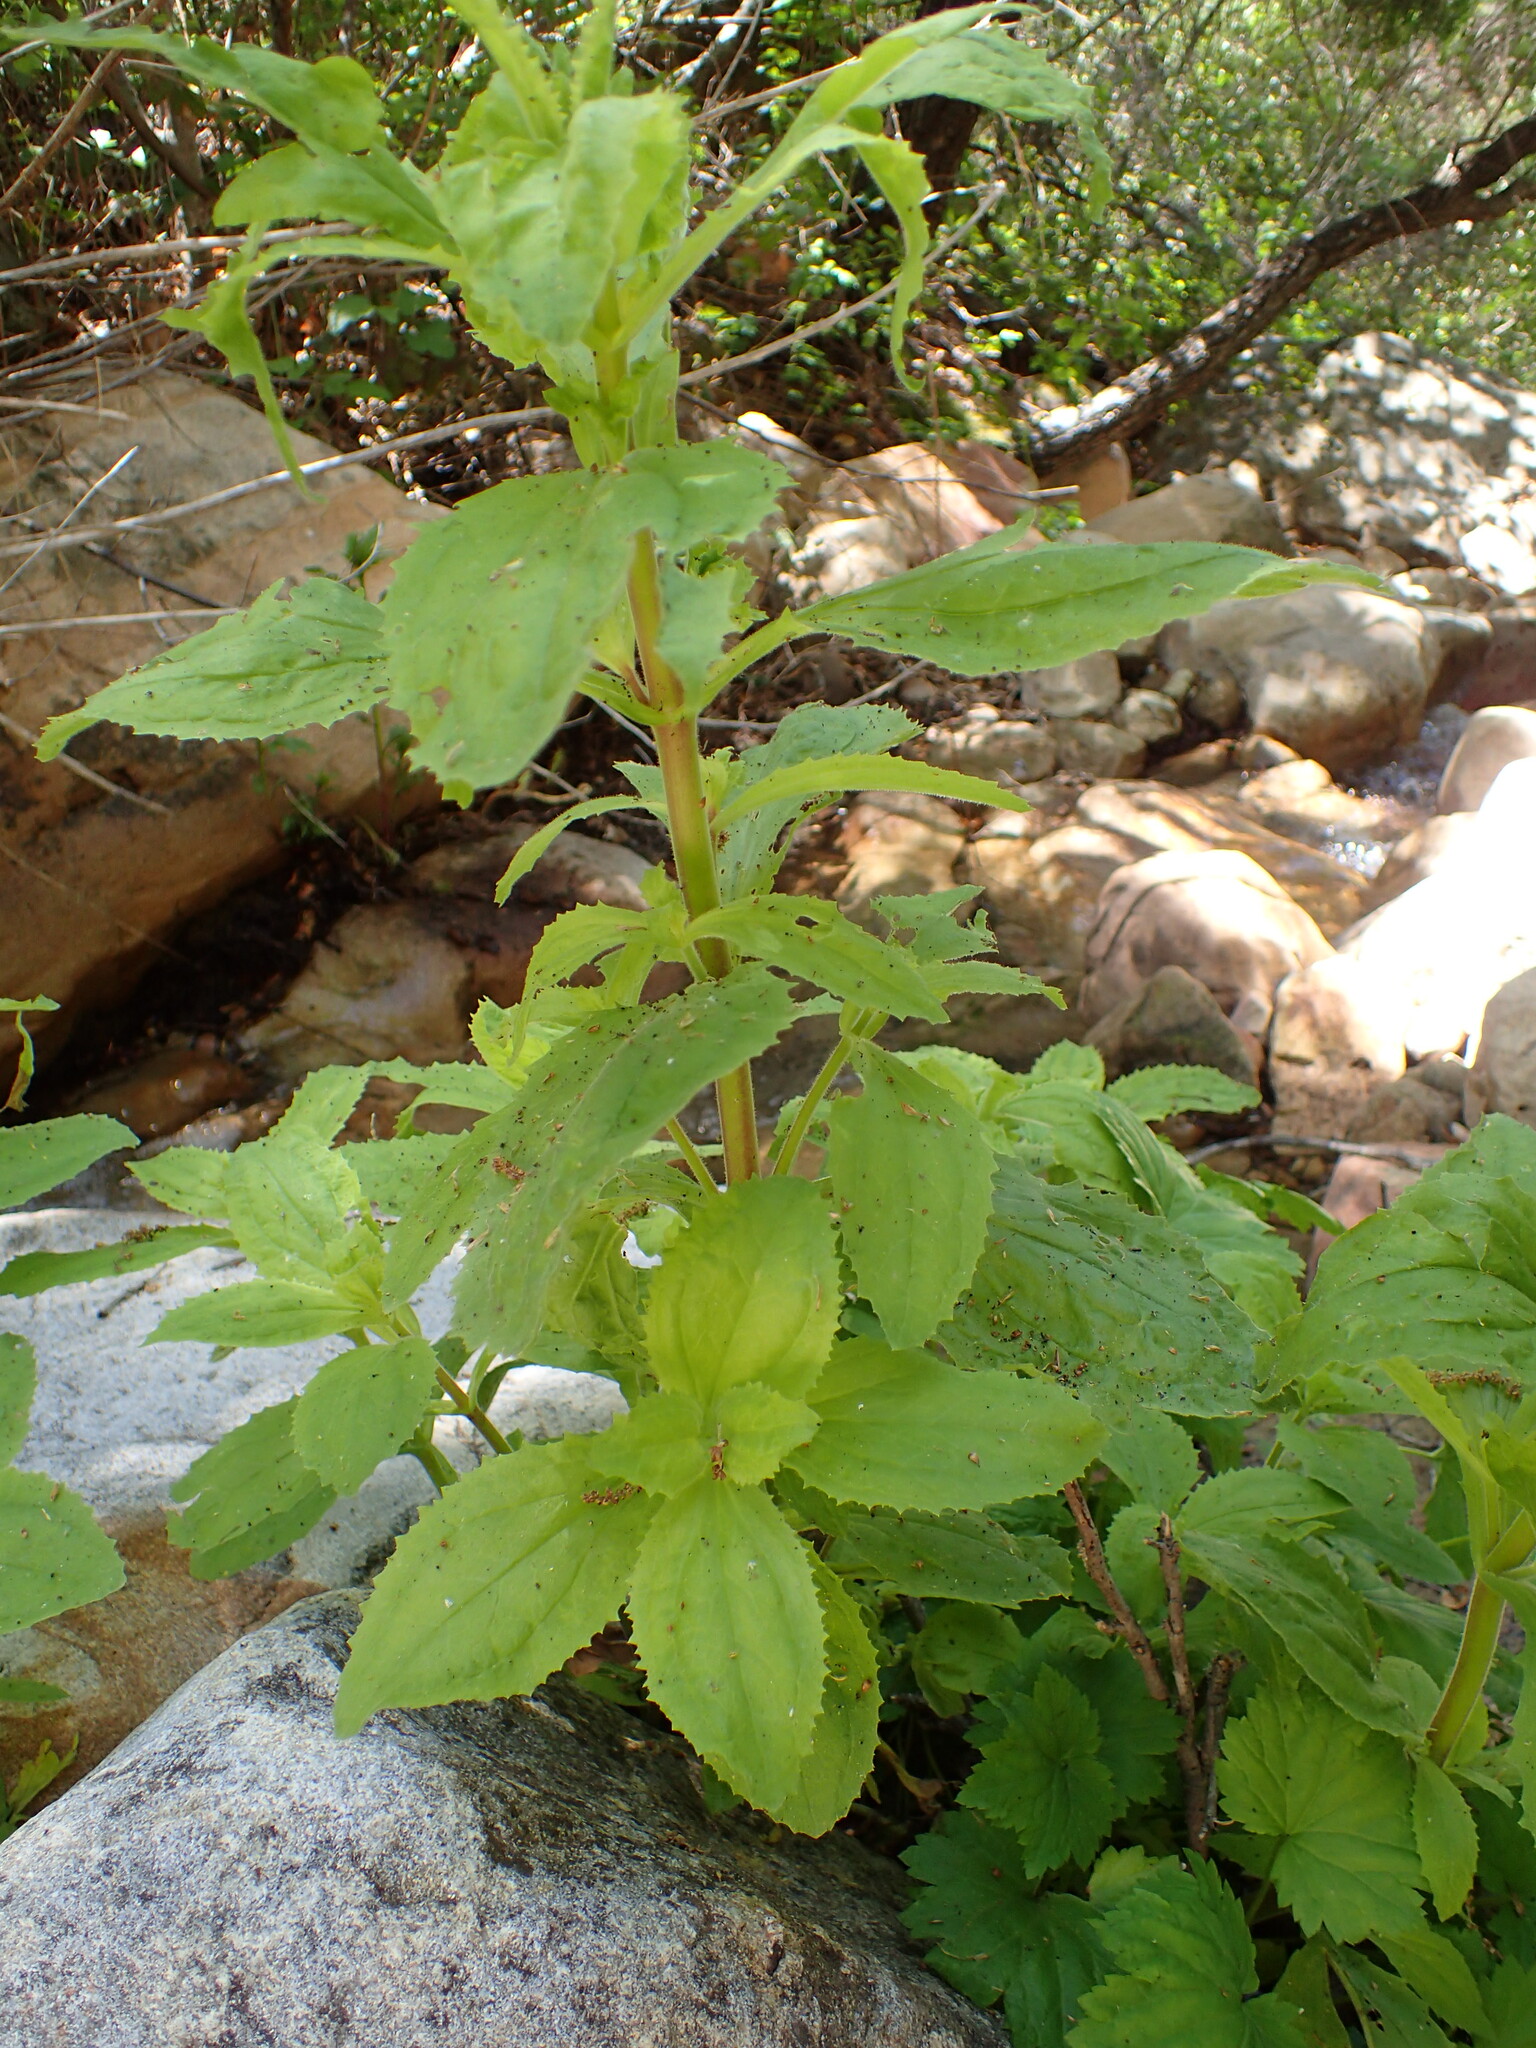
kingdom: Plantae
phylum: Tracheophyta
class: Magnoliopsida
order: Lamiales
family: Phrymaceae
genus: Erythranthe
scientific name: Erythranthe cardinalis
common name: Scarlet monkey-flower
